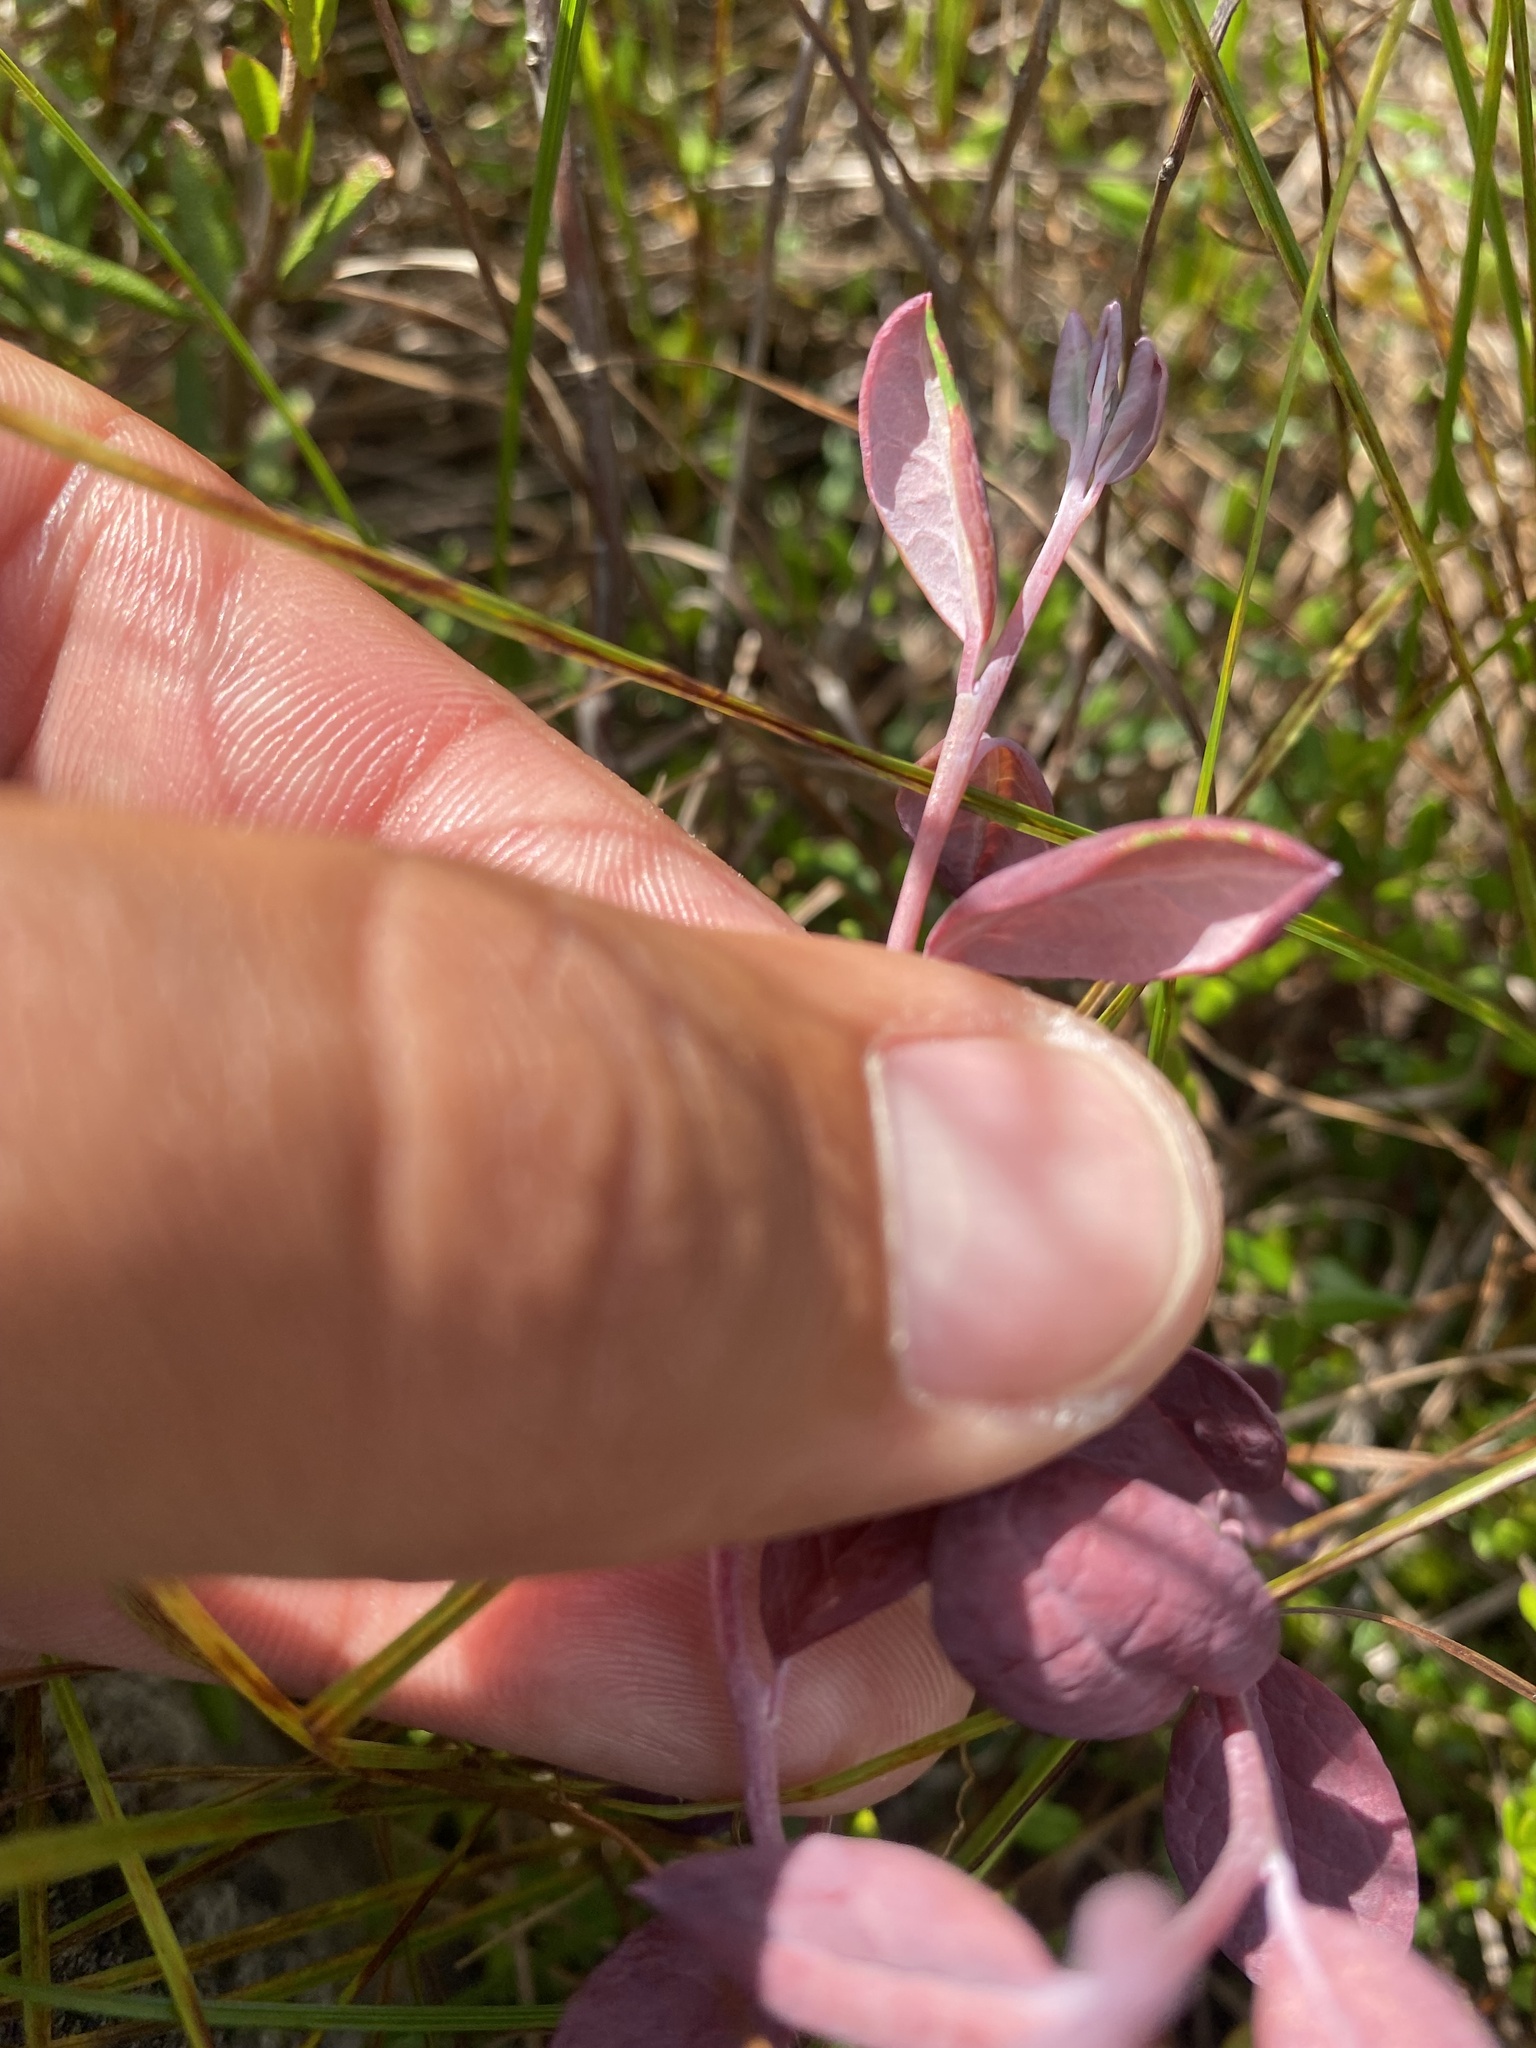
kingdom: Plantae
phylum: Tracheophyta
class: Magnoliopsida
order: Ericales
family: Ericaceae
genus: Andromeda
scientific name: Andromeda polifolia
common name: Bog-rosemary
